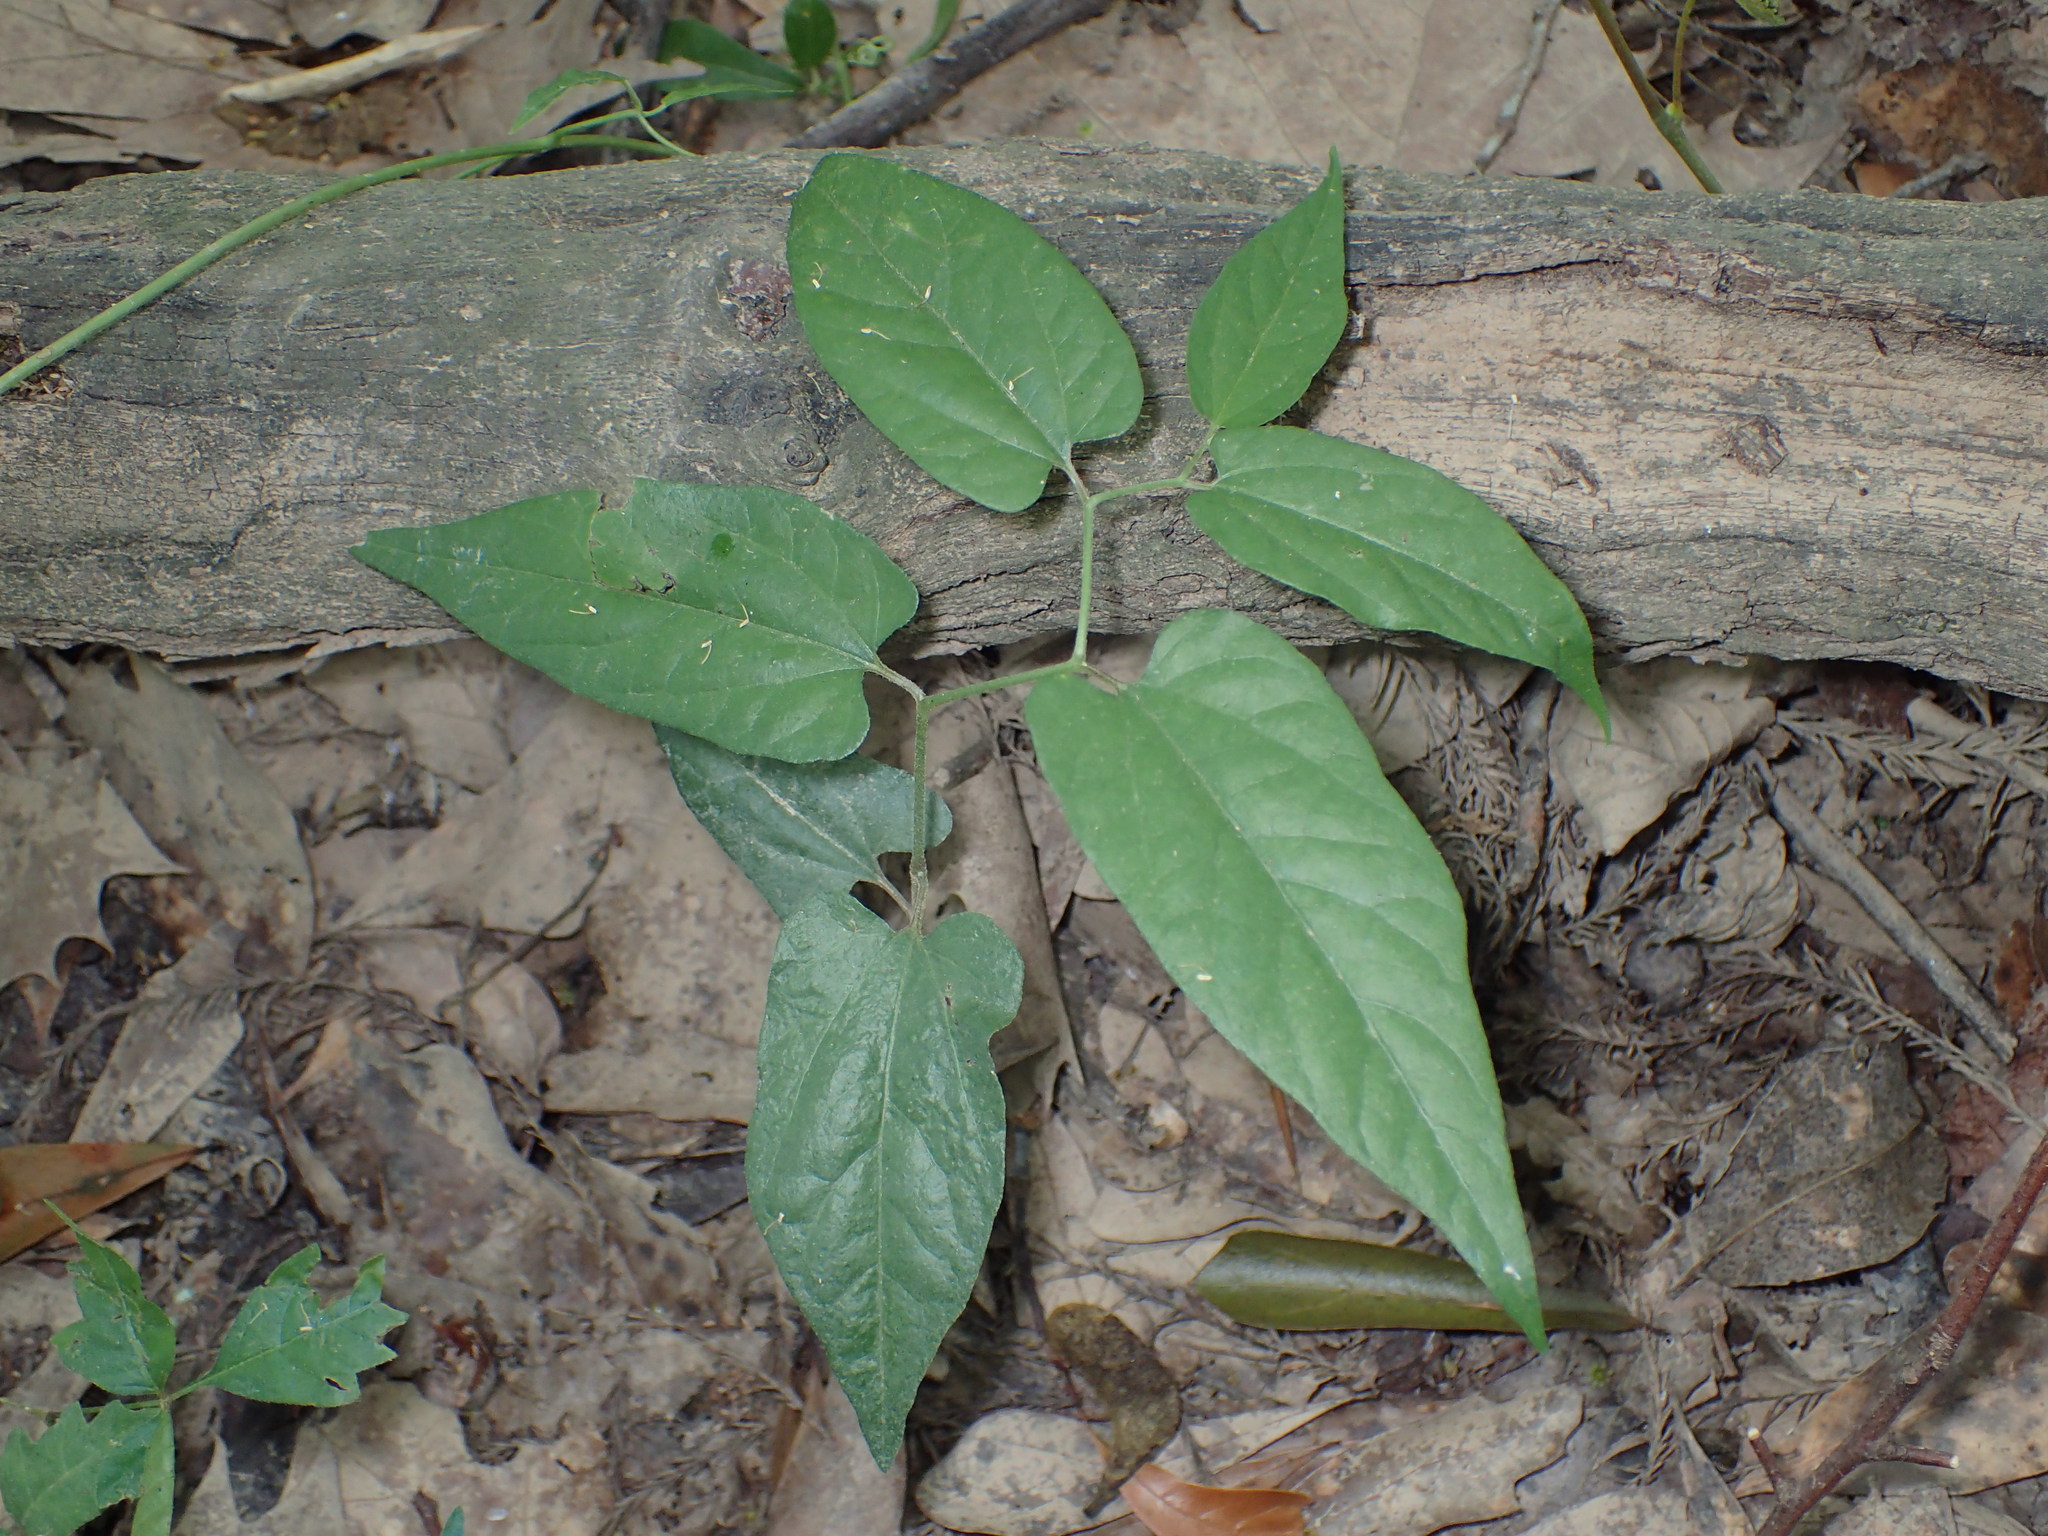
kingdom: Plantae
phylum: Tracheophyta
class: Magnoliopsida
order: Piperales
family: Aristolochiaceae
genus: Endodeca
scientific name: Endodeca serpentaria
